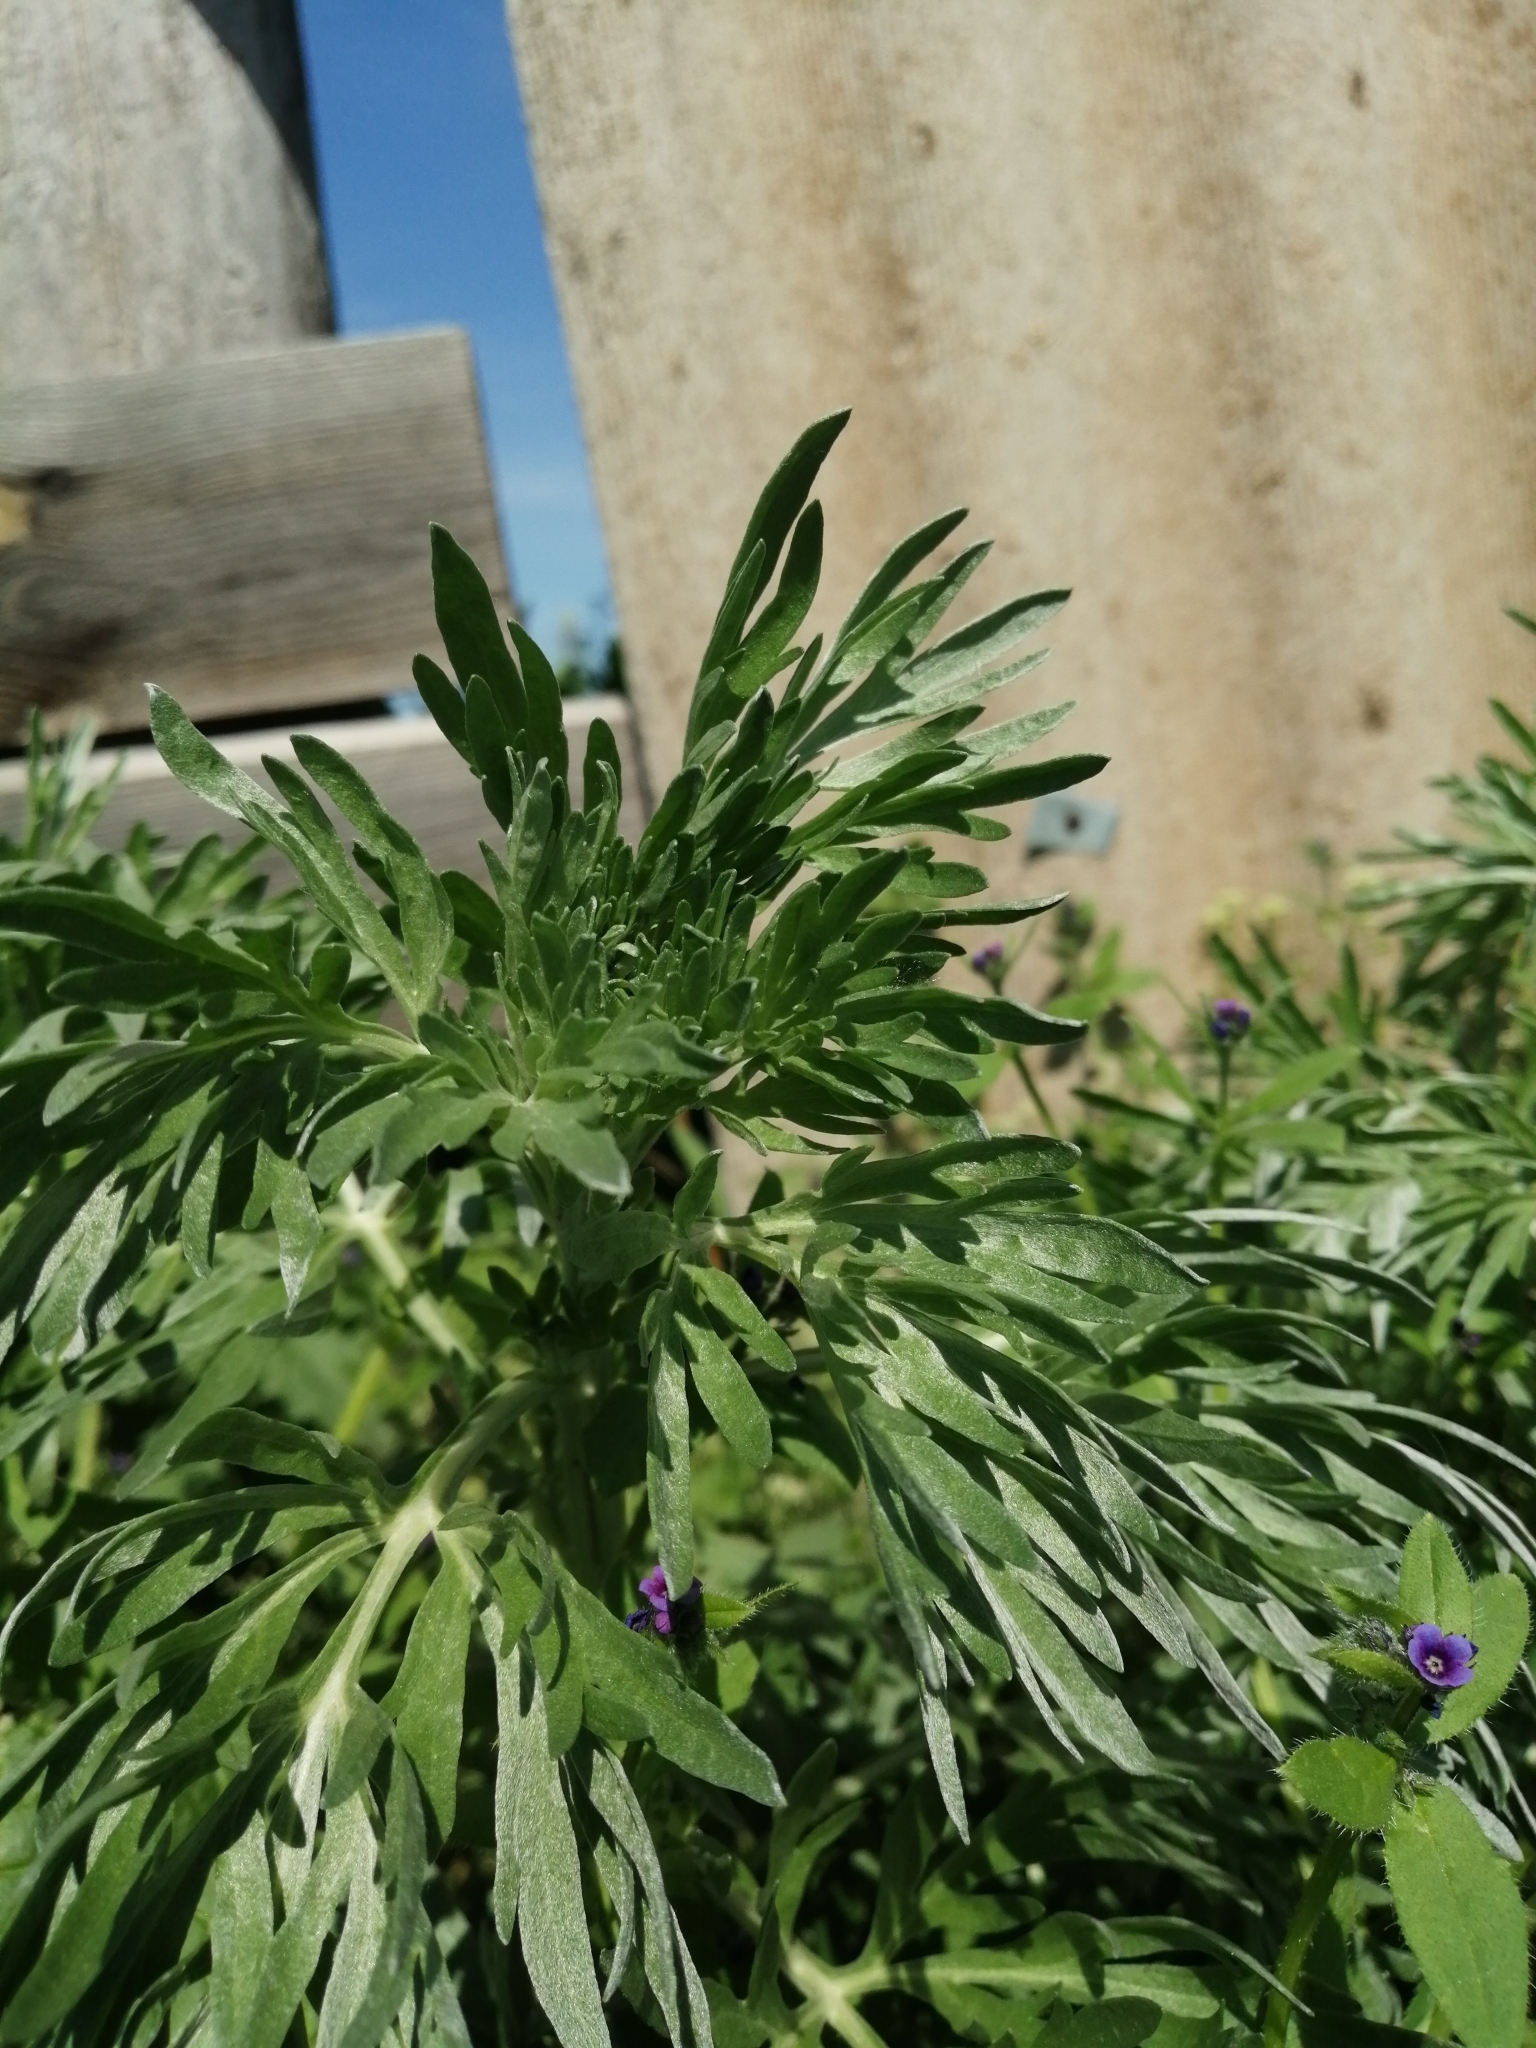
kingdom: Plantae
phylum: Tracheophyta
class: Magnoliopsida
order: Asterales
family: Asteraceae
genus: Artemisia
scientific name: Artemisia sieversiana
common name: Sieversian wormwood
